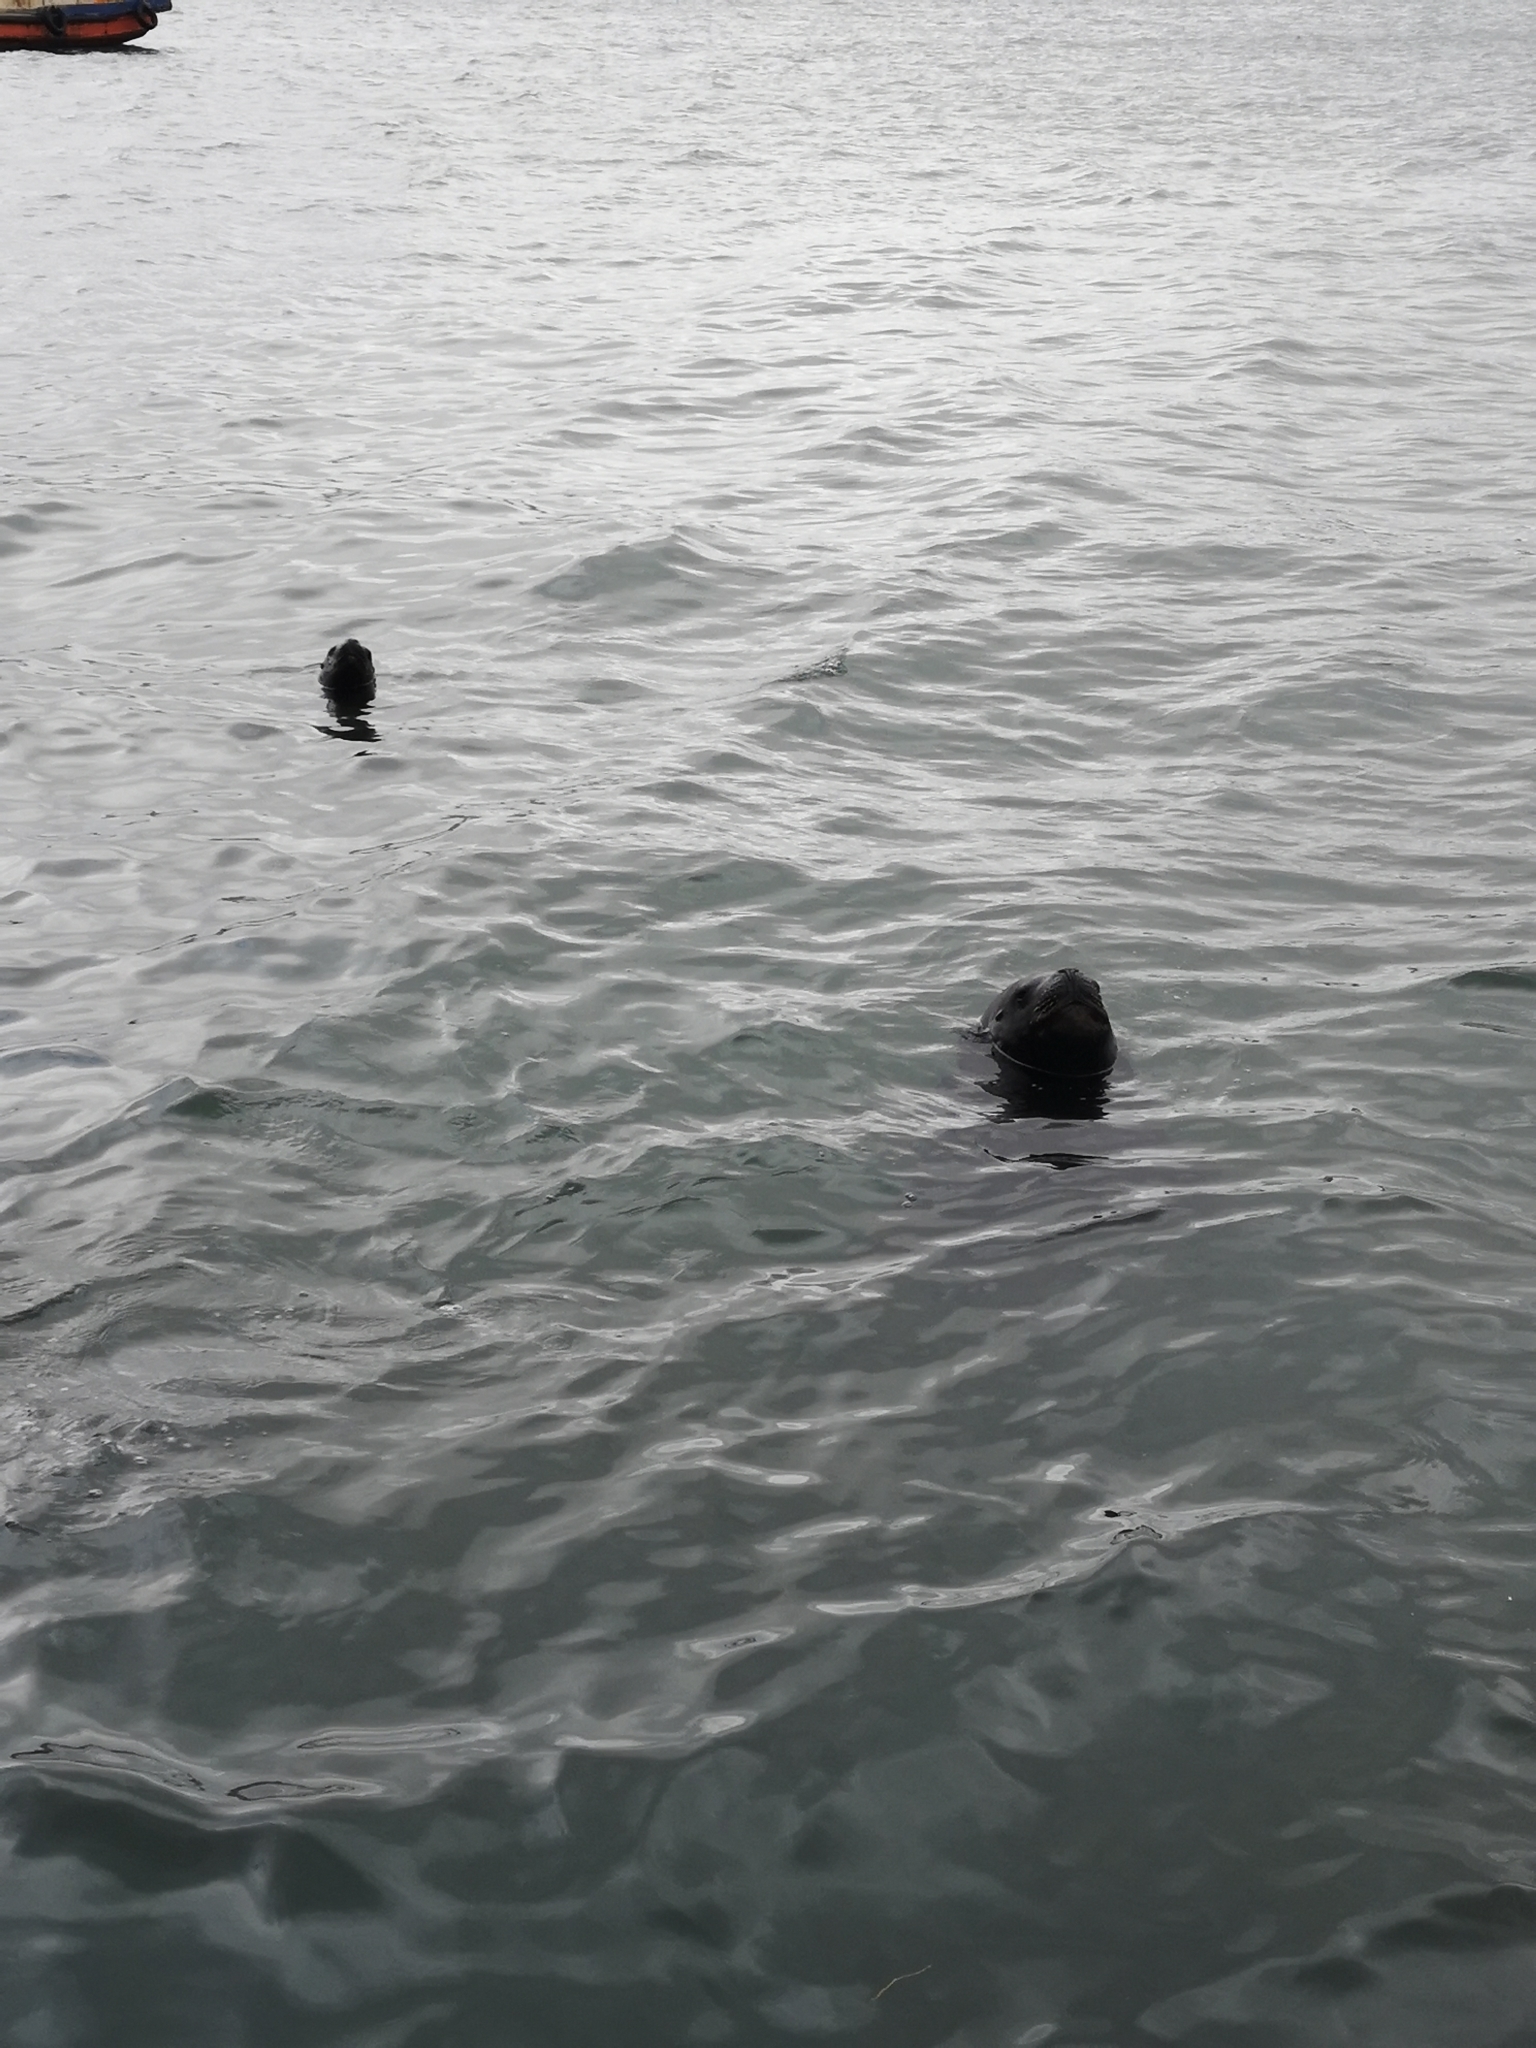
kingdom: Animalia
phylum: Chordata
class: Mammalia
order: Carnivora
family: Otariidae
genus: Otaria
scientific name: Otaria byronia
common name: South american sea lion
